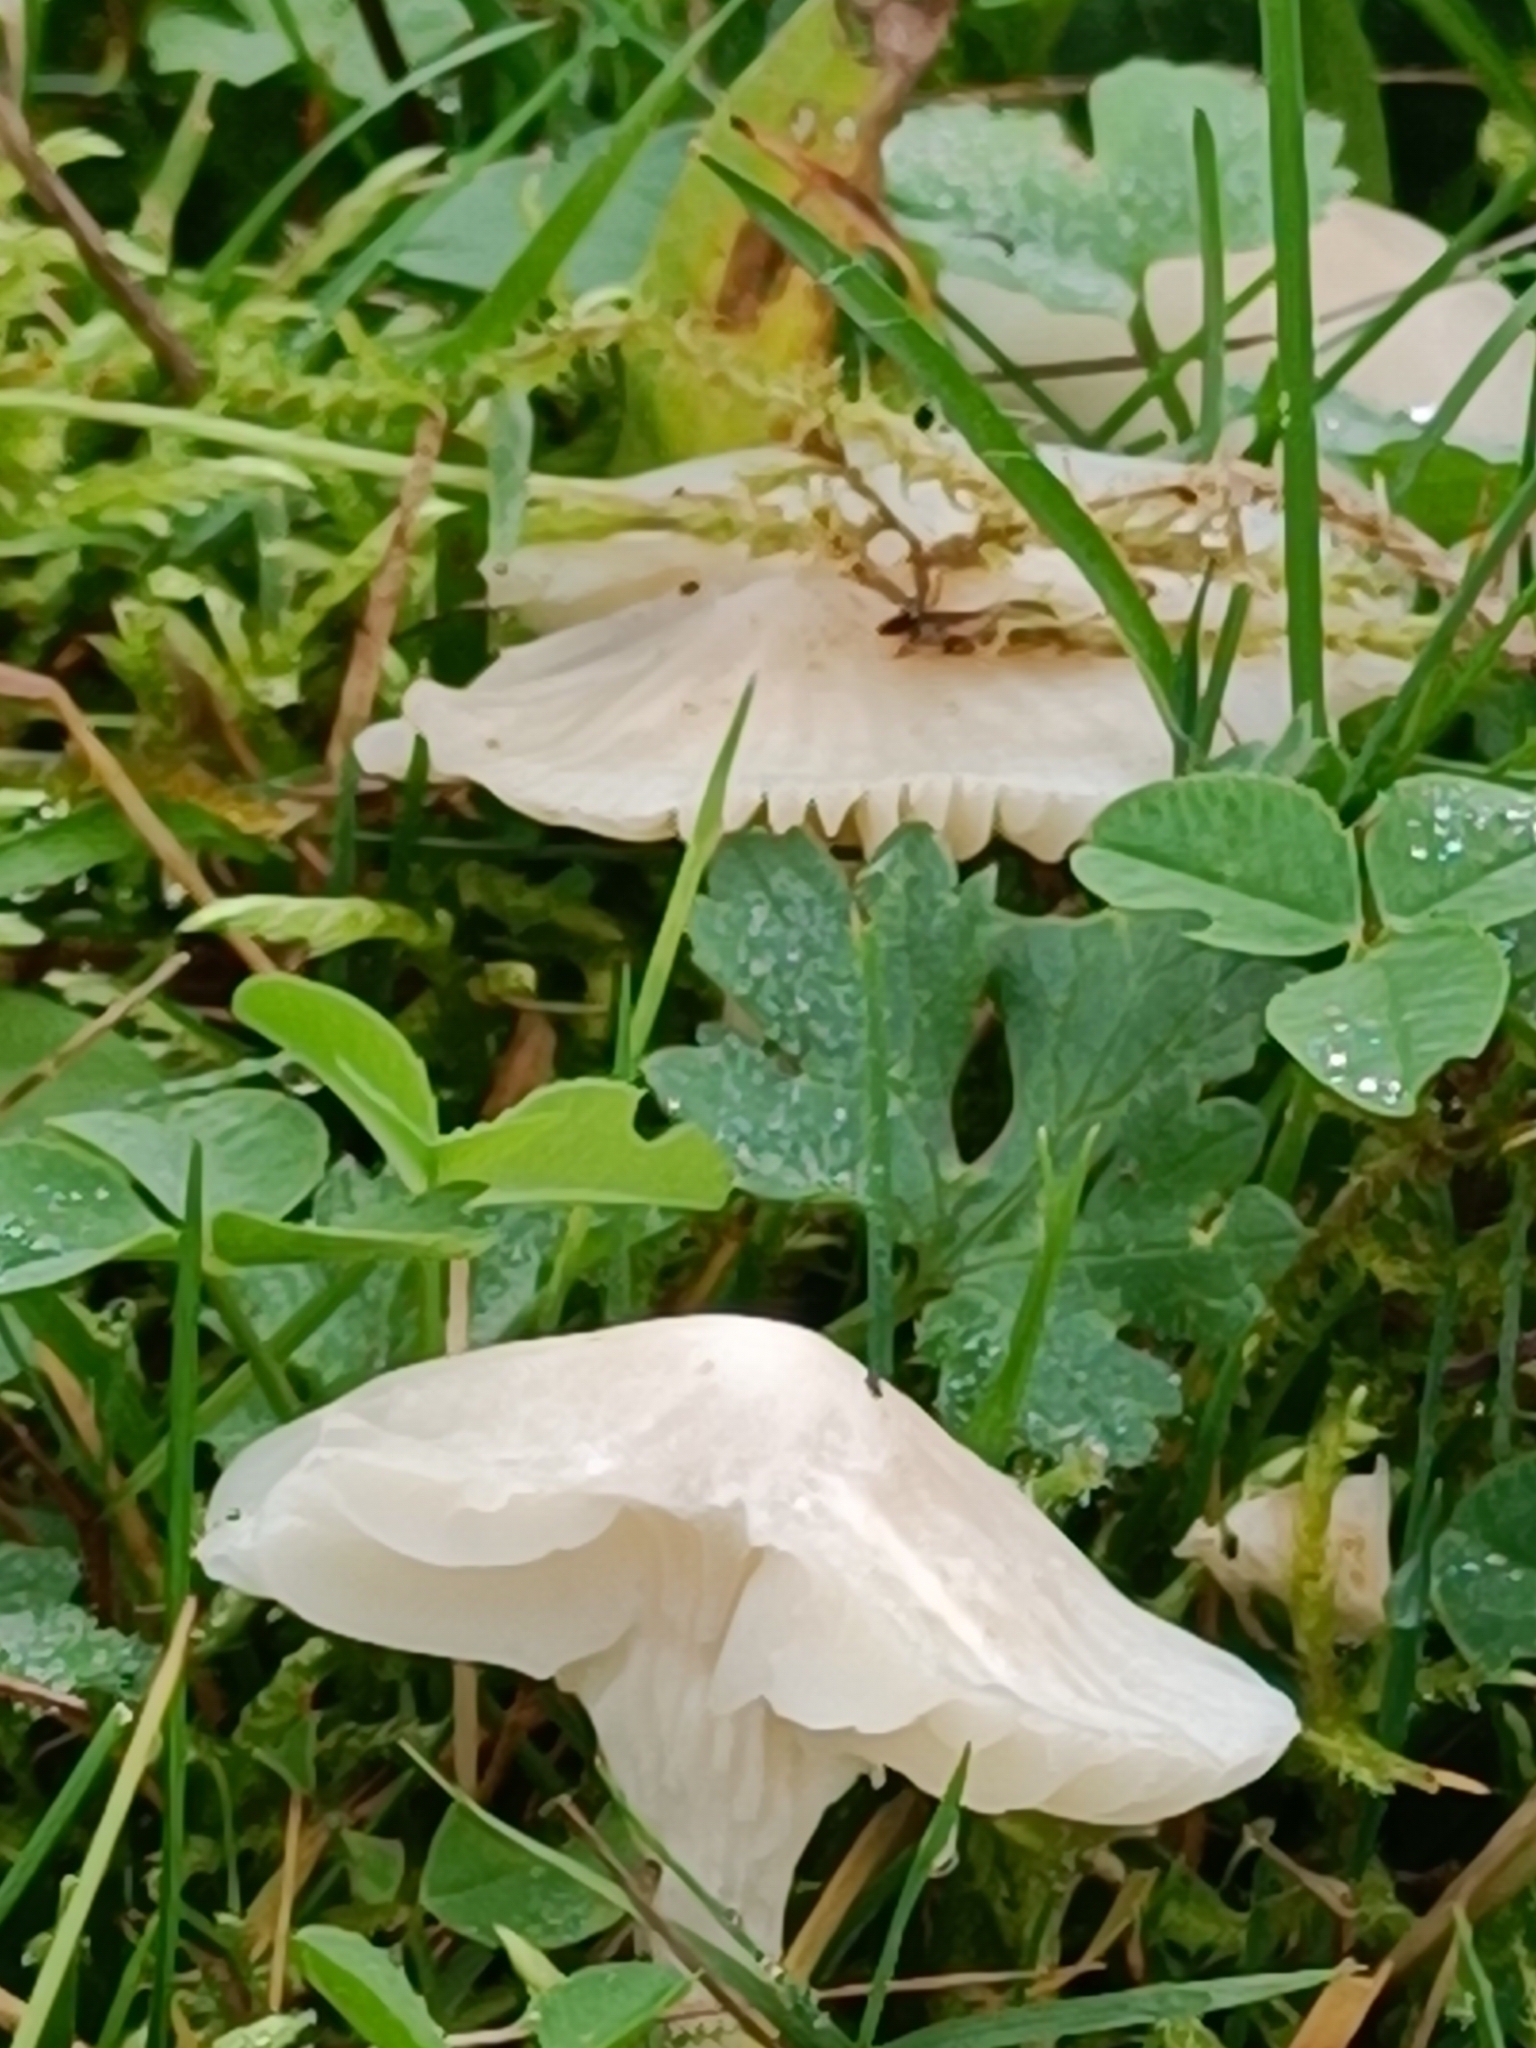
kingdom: Fungi
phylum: Basidiomycota
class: Agaricomycetes
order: Agaricales
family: Hygrophoraceae
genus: Cuphophyllus
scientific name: Cuphophyllus virgineus
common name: Snowy waxcap
